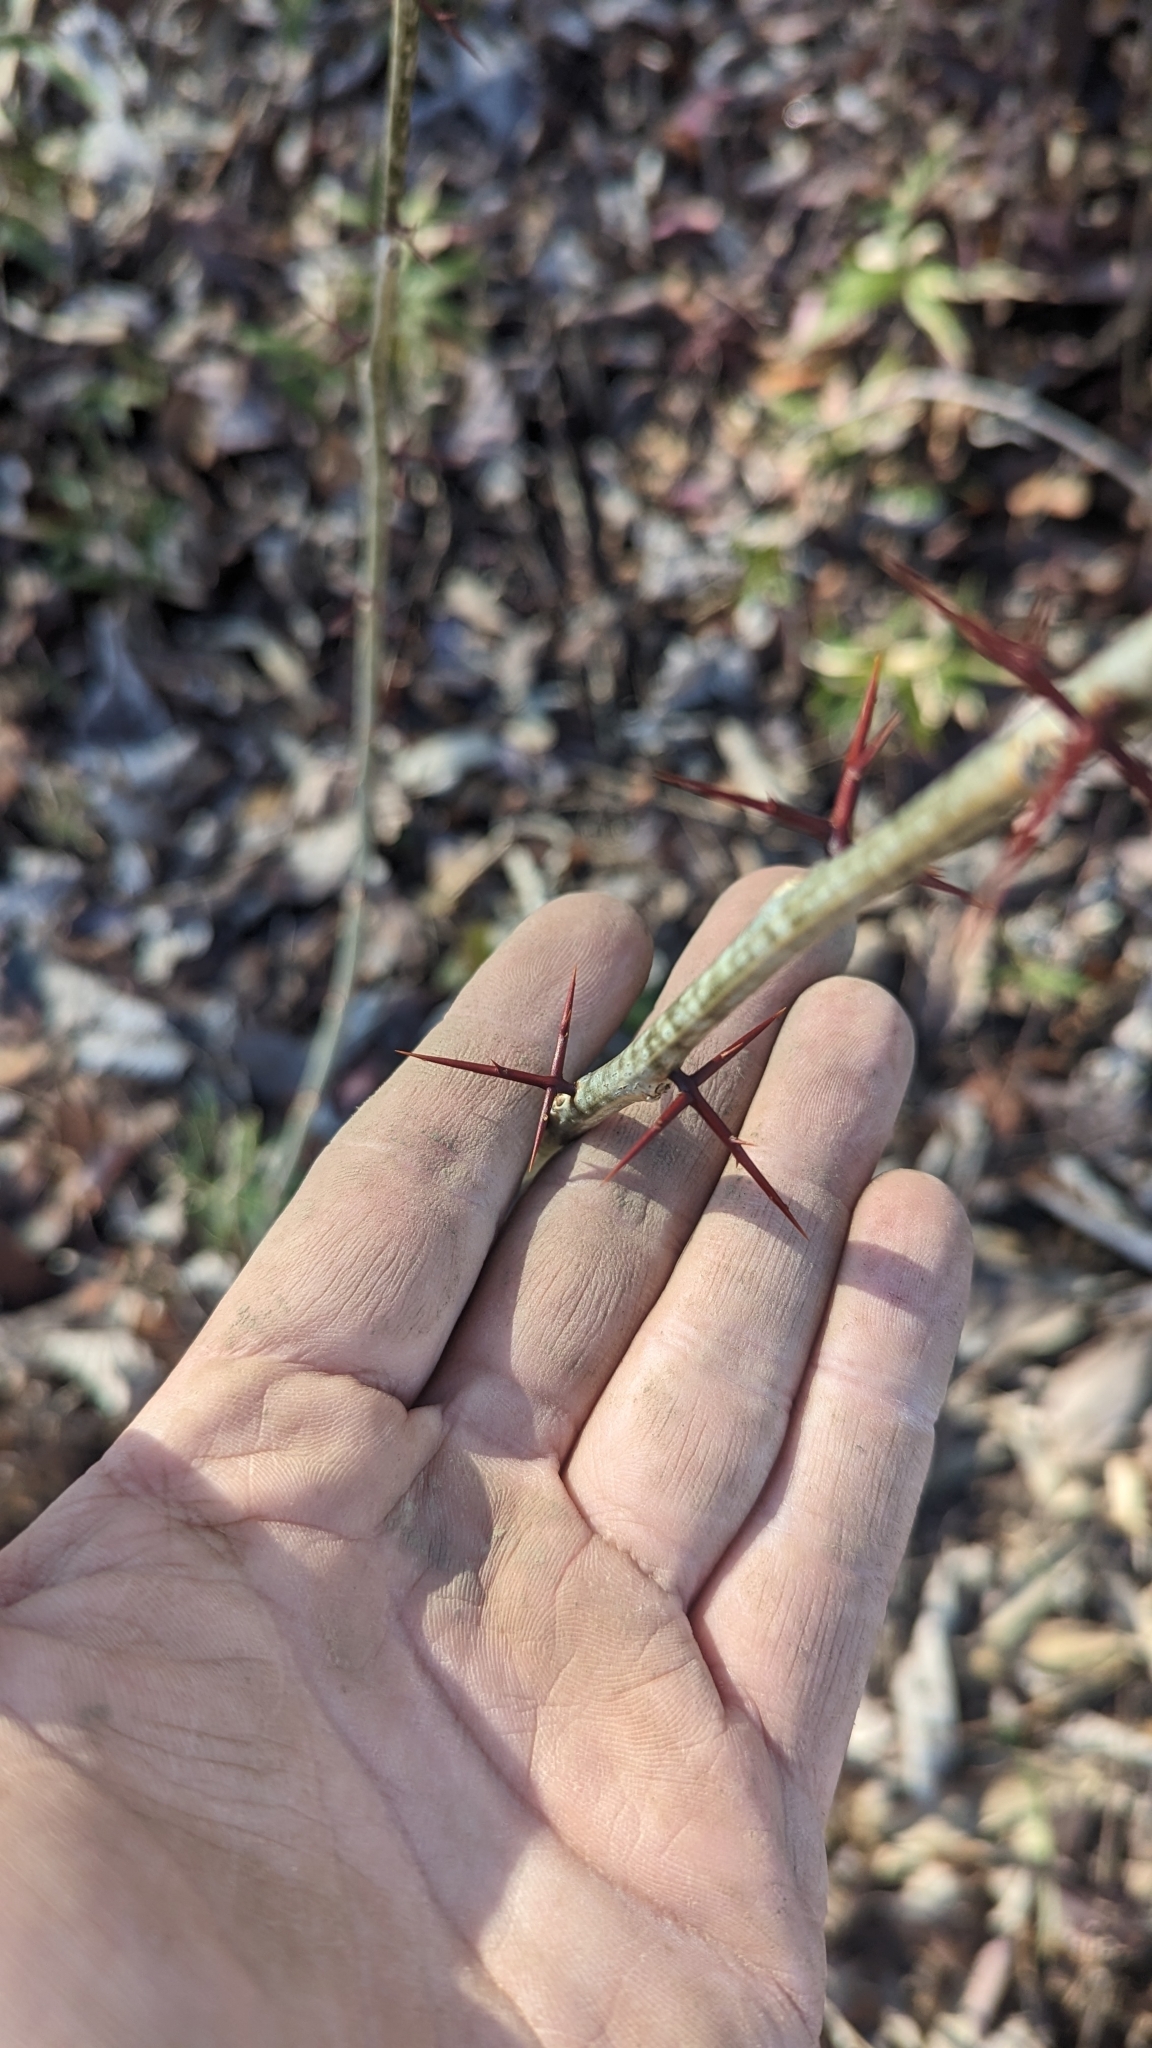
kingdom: Plantae
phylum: Tracheophyta
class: Magnoliopsida
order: Fabales
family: Fabaceae
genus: Gleditsia
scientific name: Gleditsia triacanthos
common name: Common honeylocust
